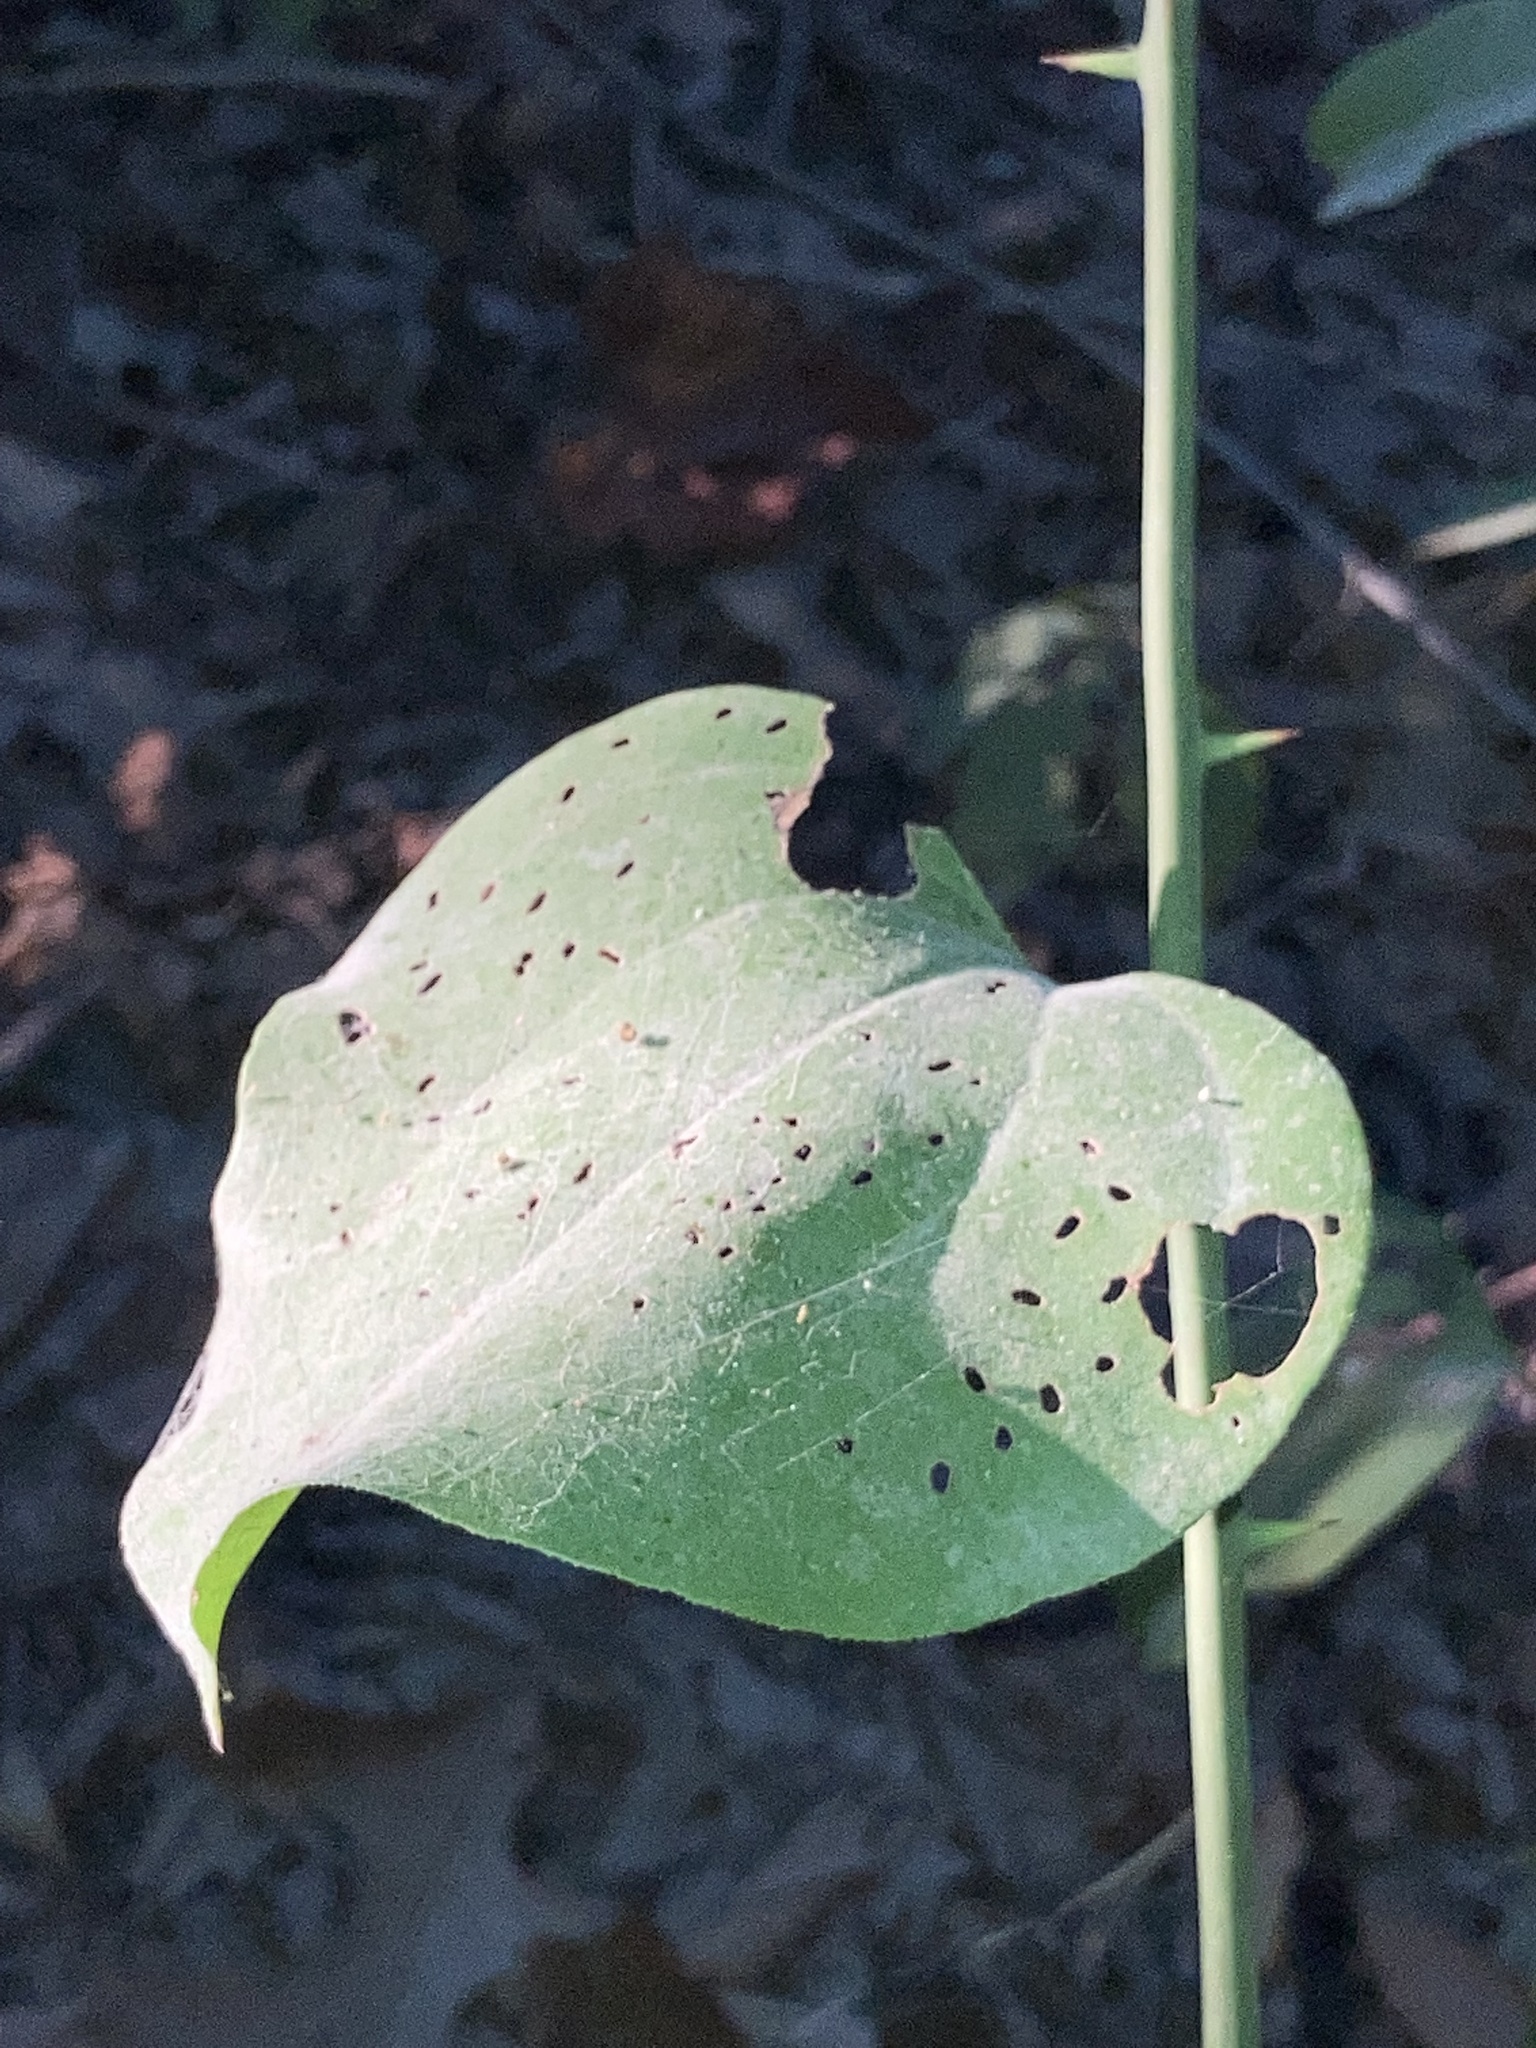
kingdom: Plantae
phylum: Tracheophyta
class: Liliopsida
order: Liliales
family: Smilacaceae
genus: Smilax
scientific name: Smilax rotundifolia
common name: Bullbriar
